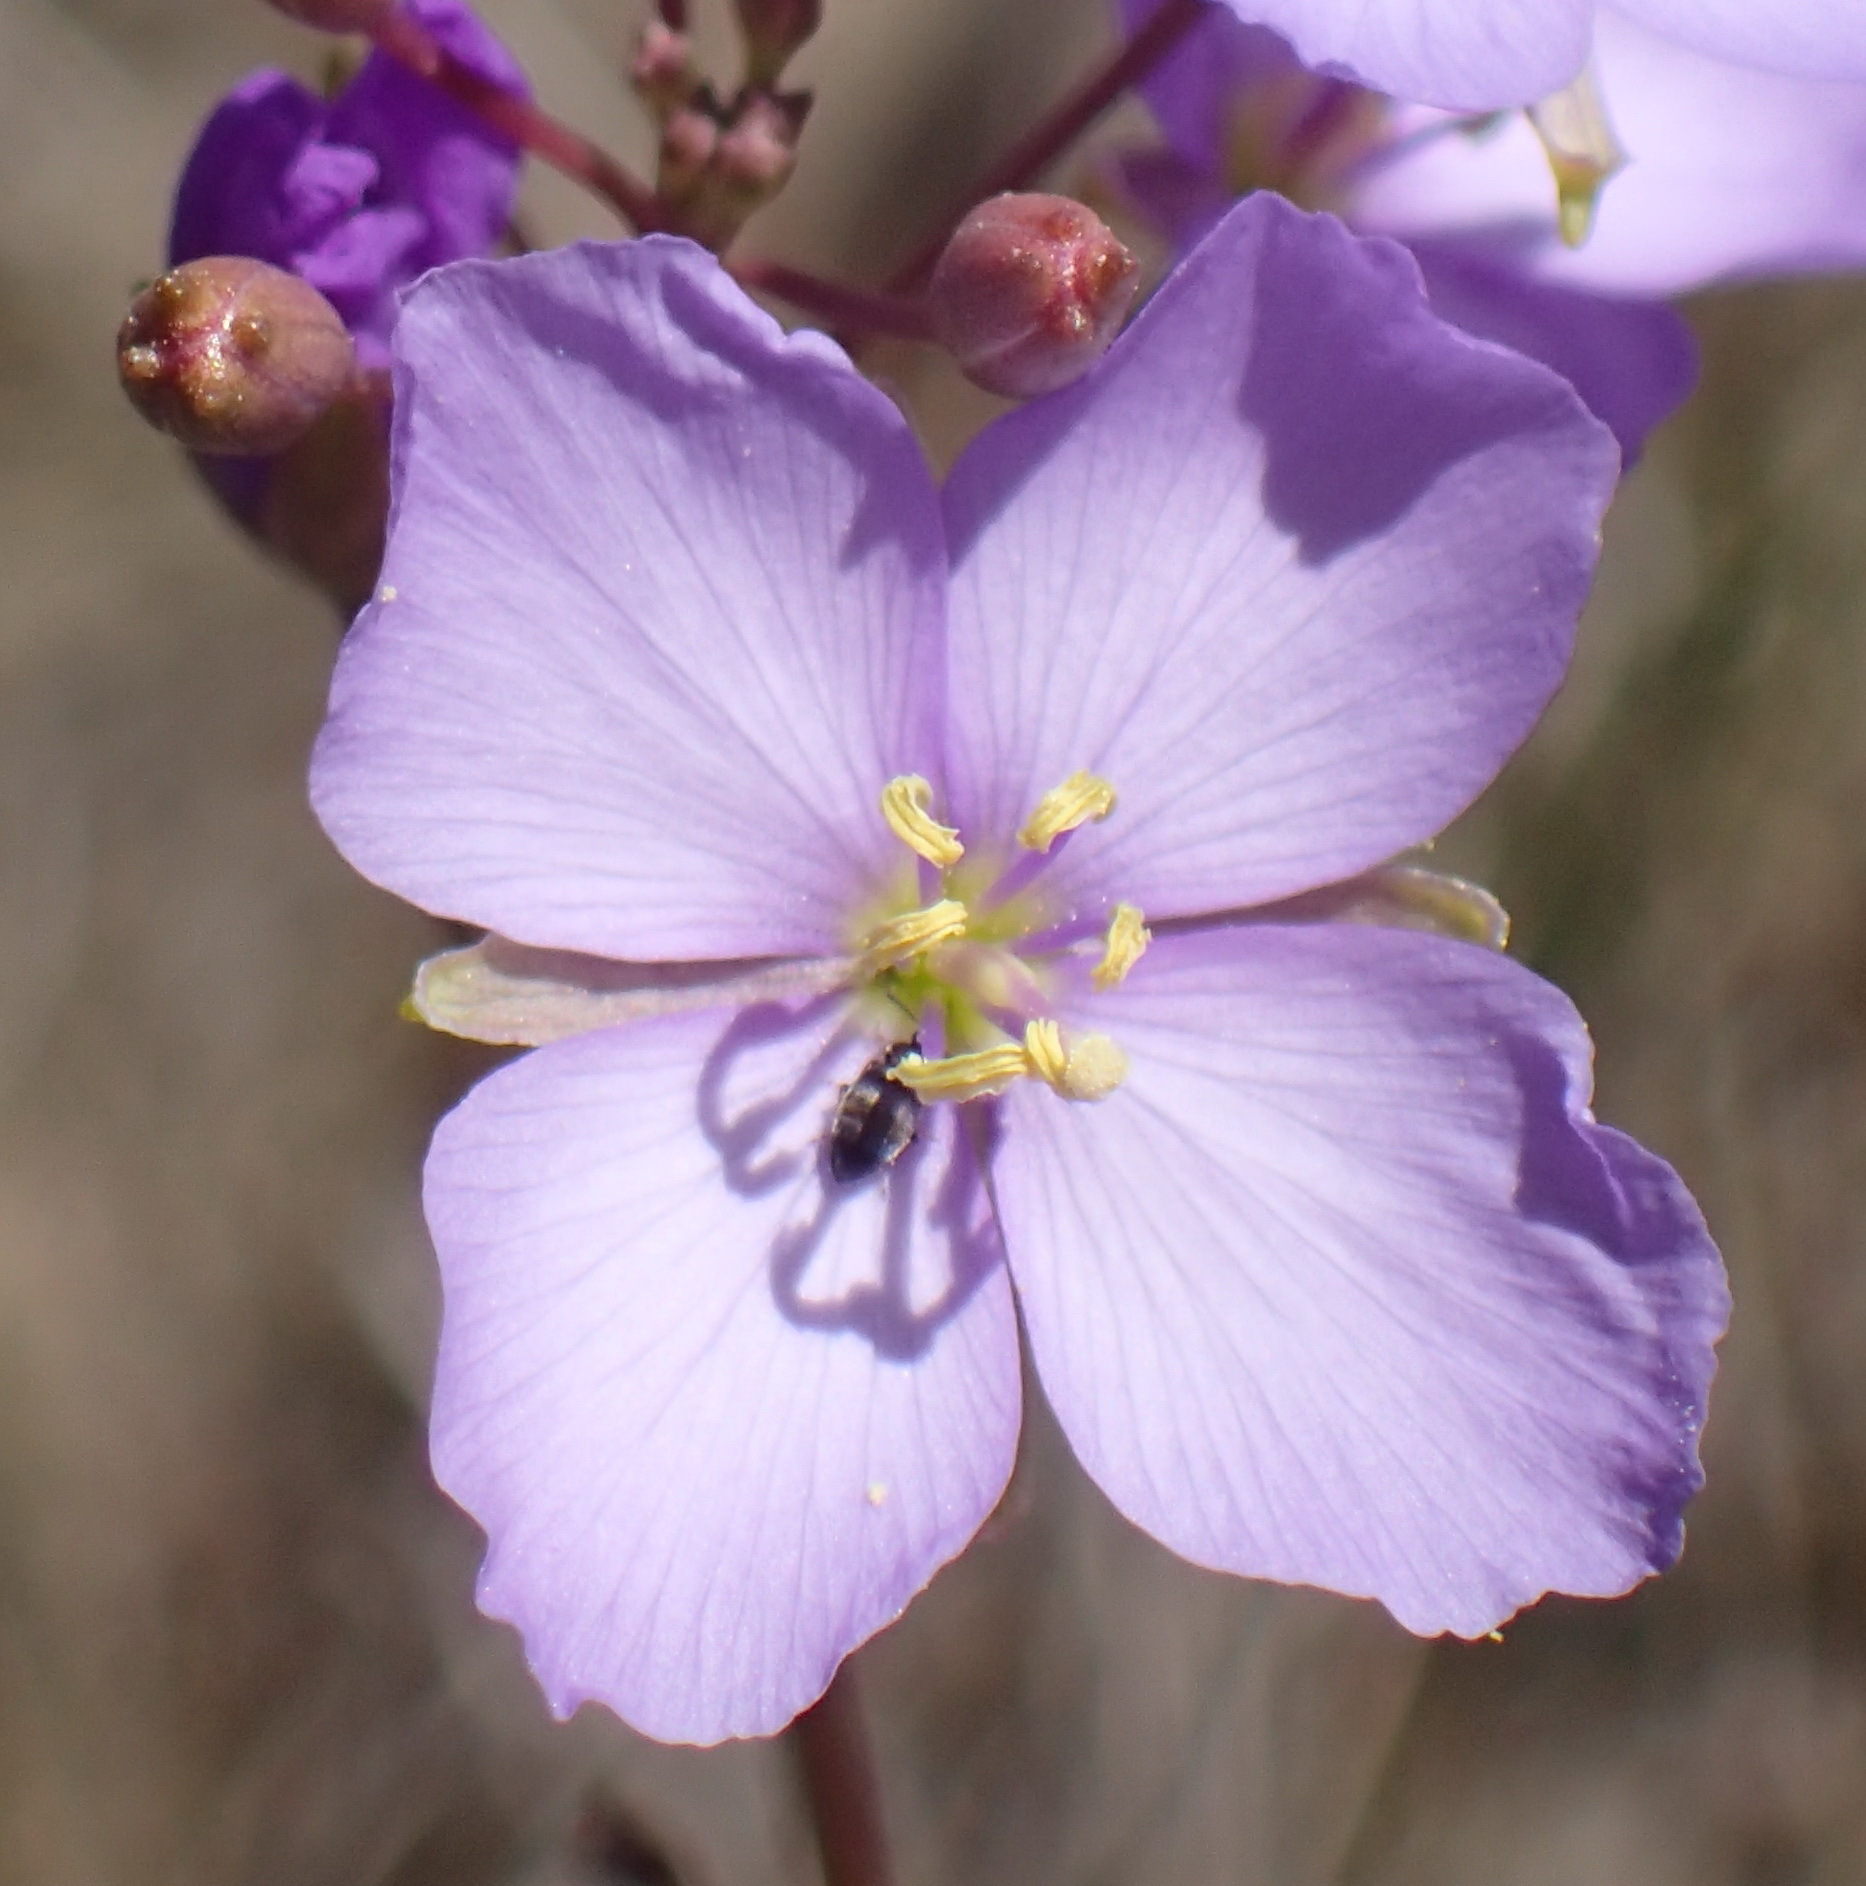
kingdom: Plantae
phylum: Tracheophyta
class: Magnoliopsida
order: Brassicales
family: Brassicaceae
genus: Heliophila
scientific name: Heliophila subulata
